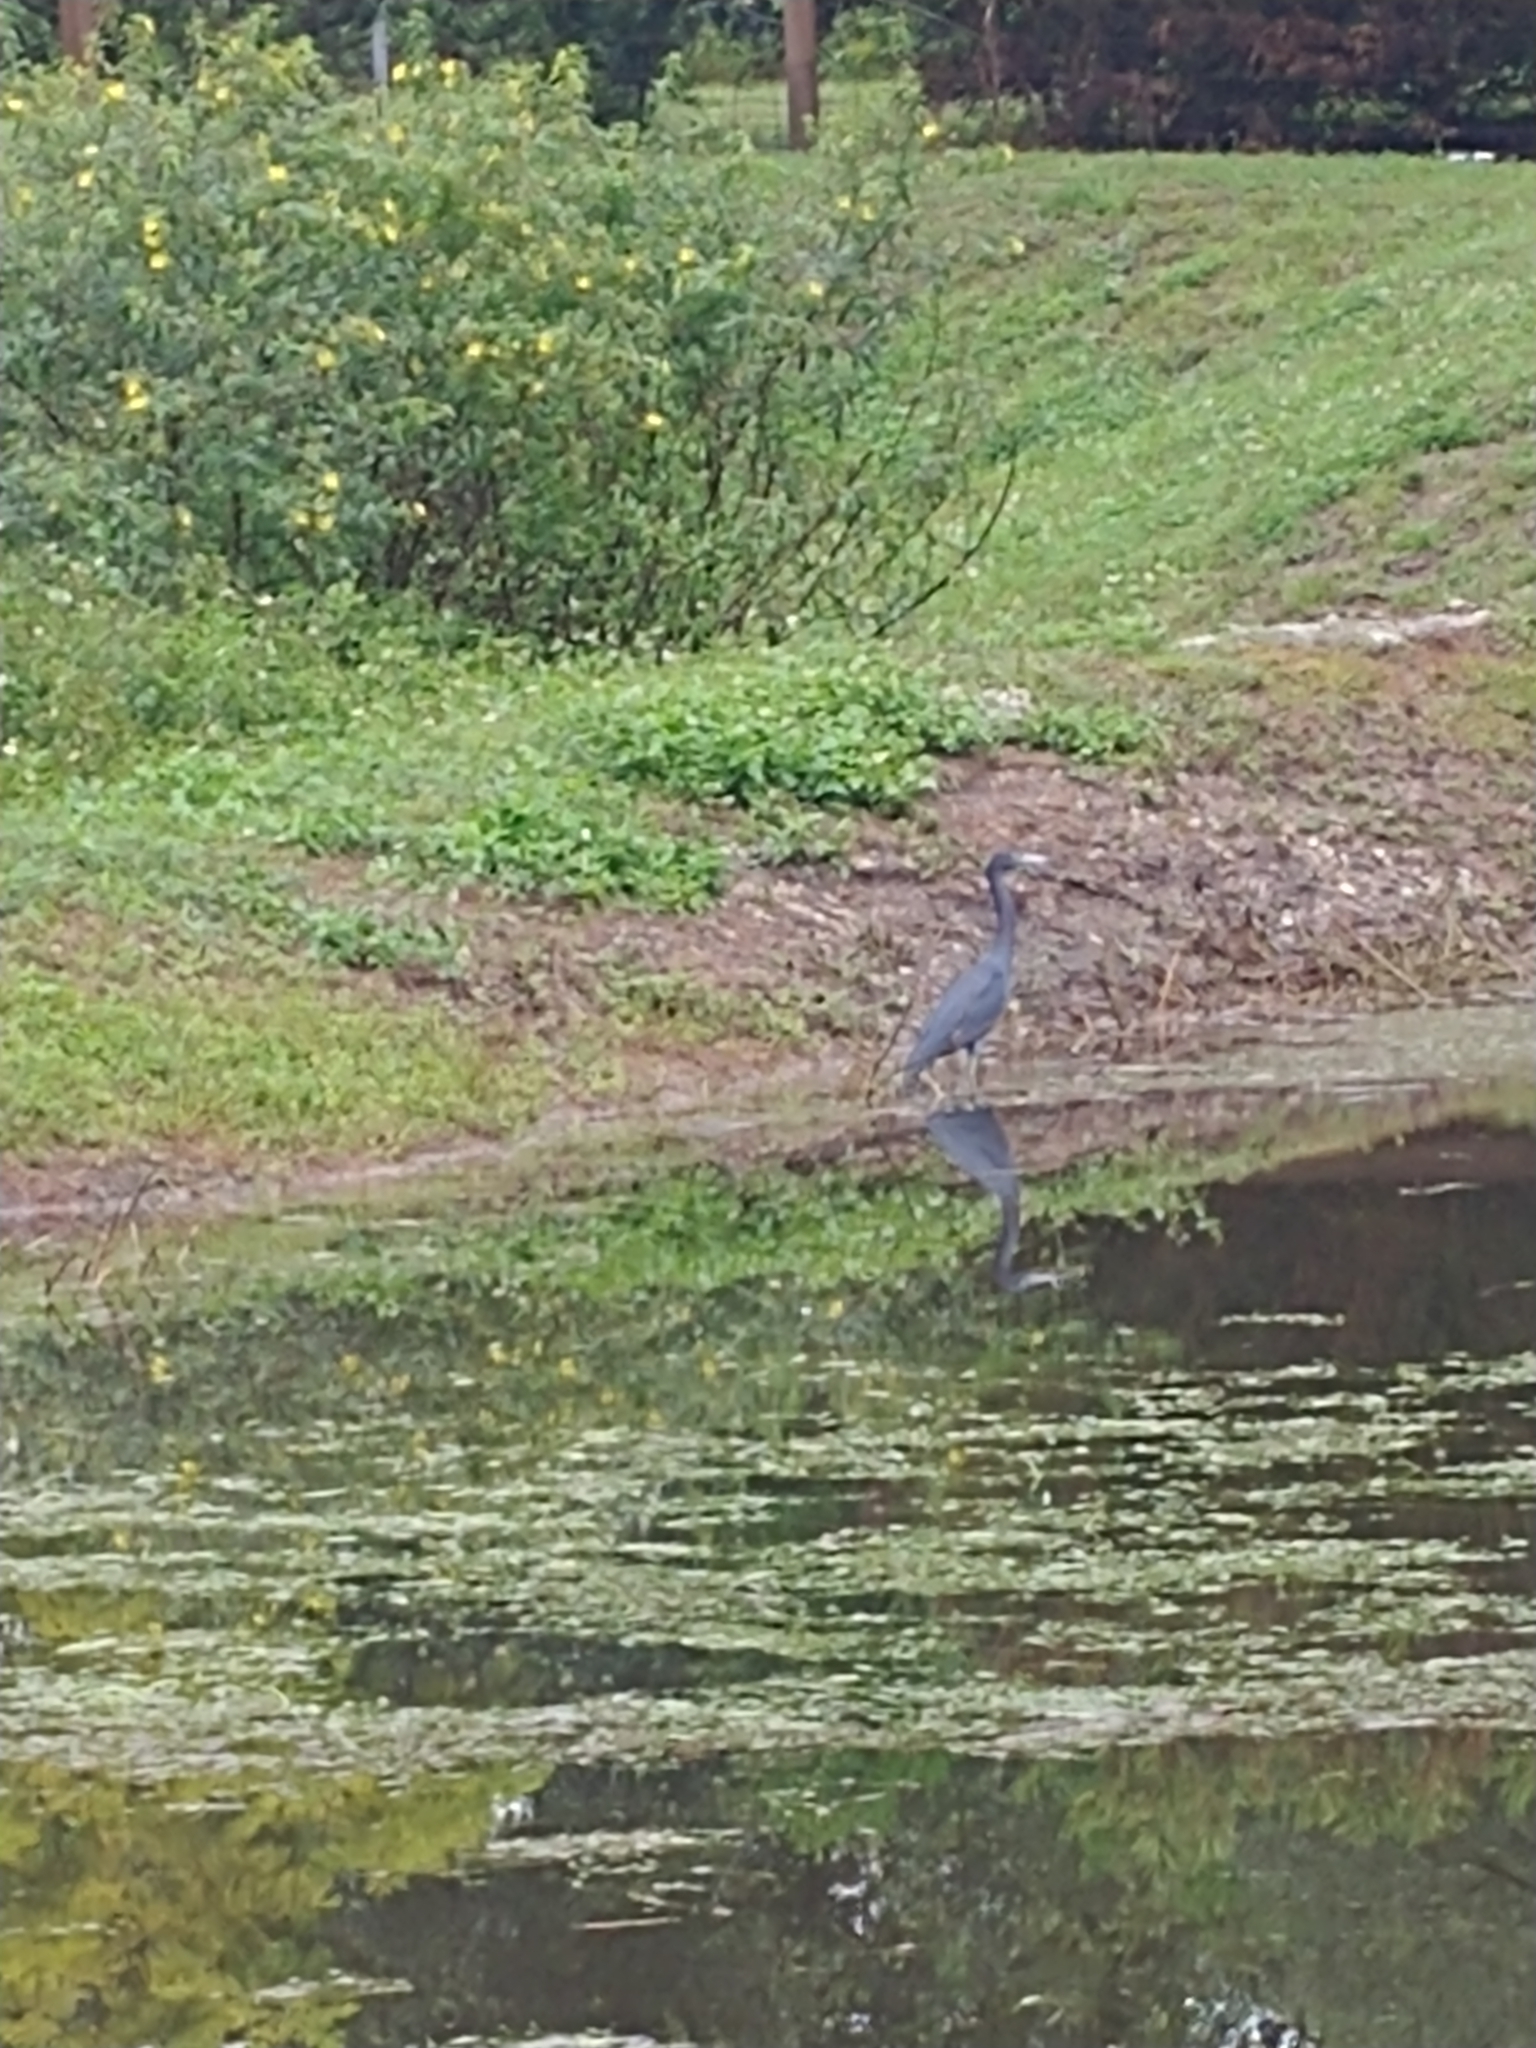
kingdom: Animalia
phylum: Chordata
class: Aves
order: Pelecaniformes
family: Ardeidae
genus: Egretta
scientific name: Egretta caerulea
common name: Little blue heron
